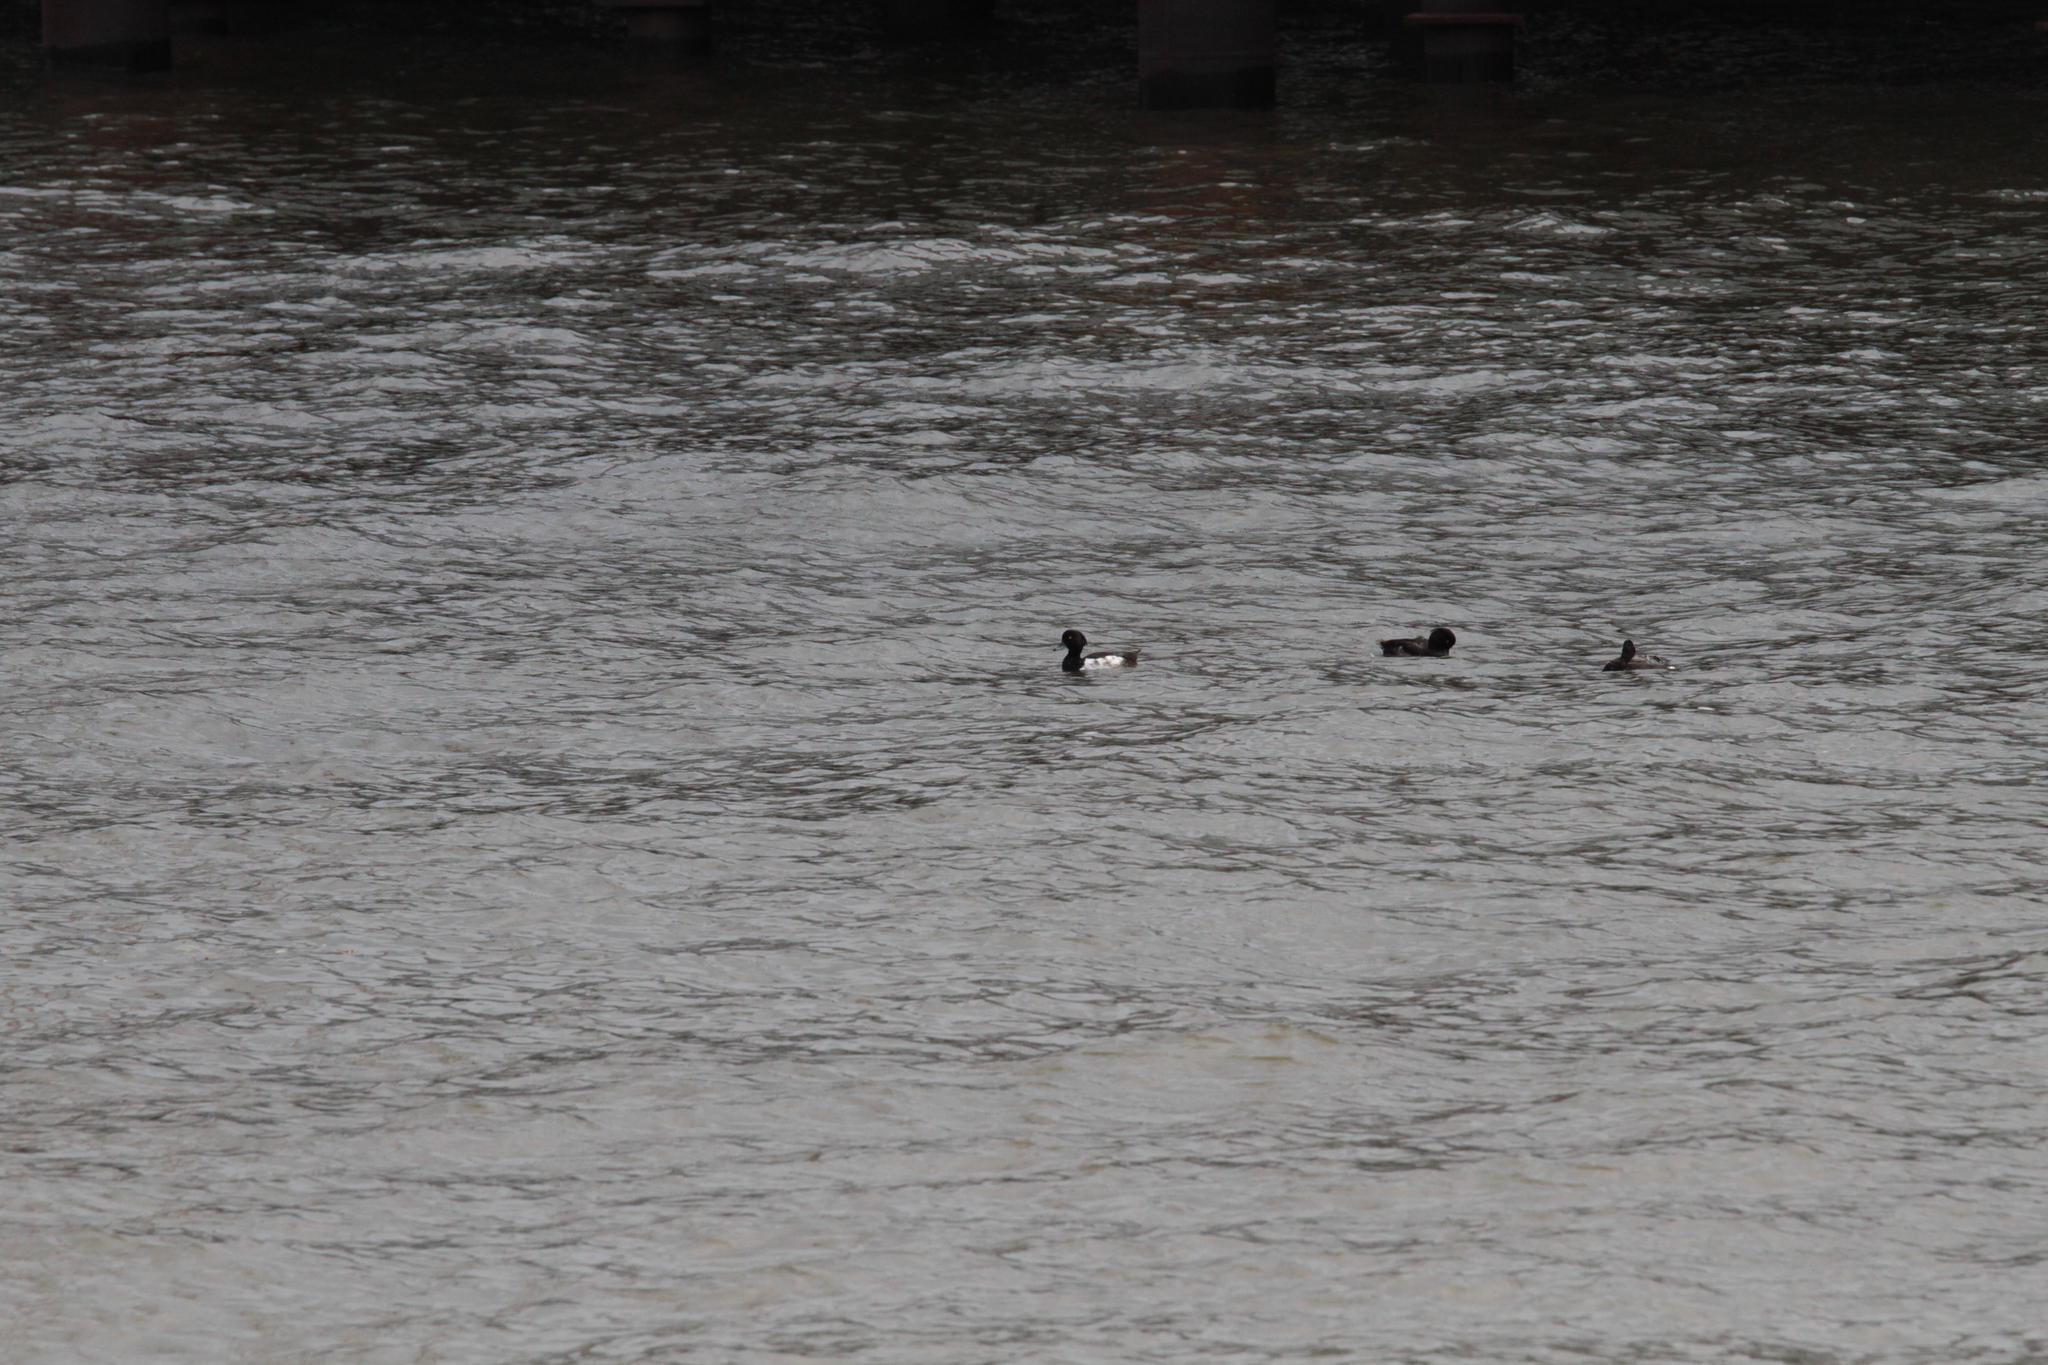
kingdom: Animalia
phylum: Chordata
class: Aves
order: Anseriformes
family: Anatidae
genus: Aythya
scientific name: Aythya fuligula
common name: Tufted duck
